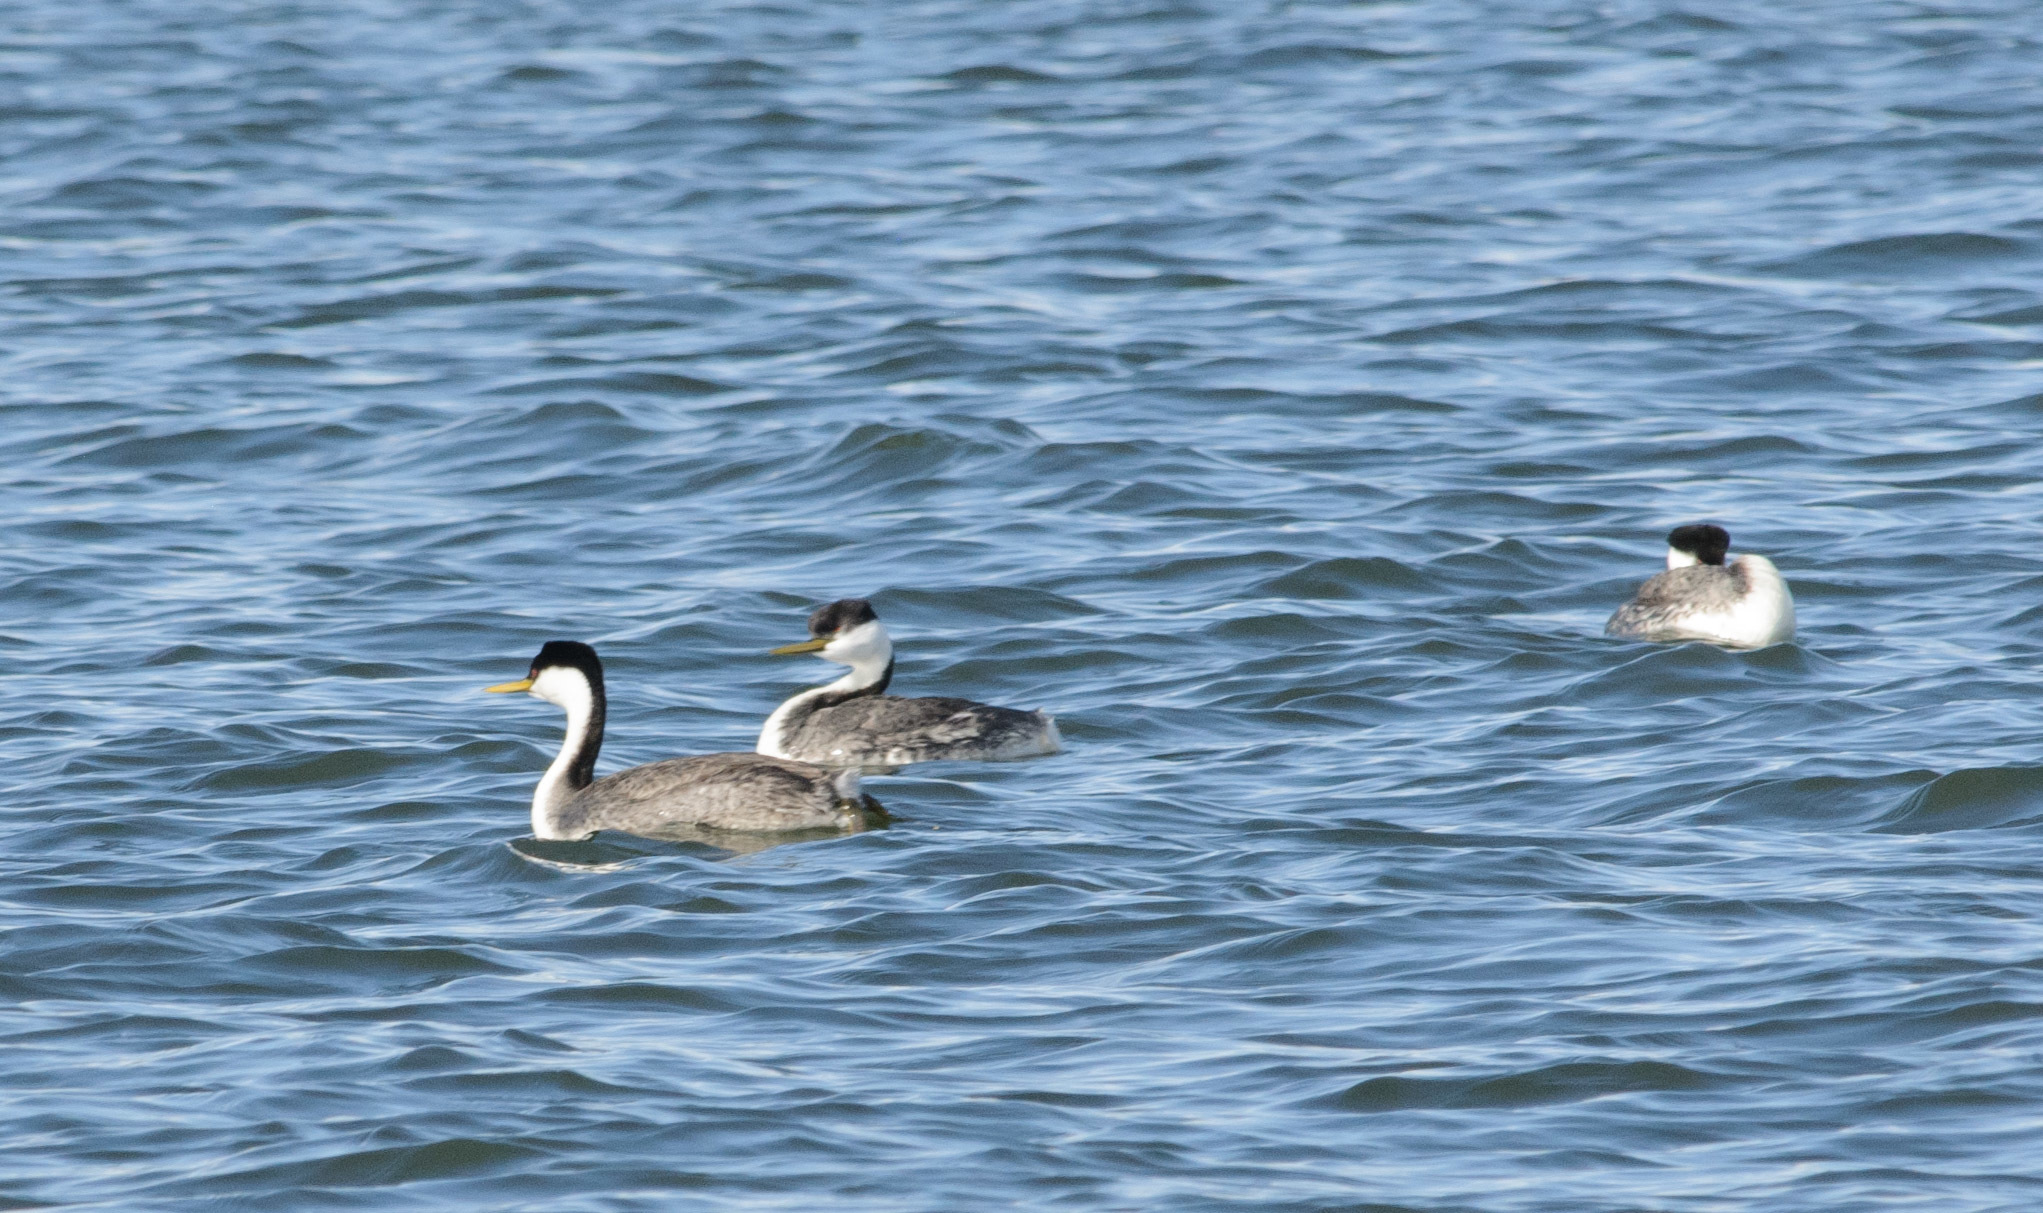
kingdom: Animalia
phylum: Chordata
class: Aves
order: Podicipediformes
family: Podicipedidae
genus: Aechmophorus
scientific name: Aechmophorus occidentalis
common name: Western grebe
